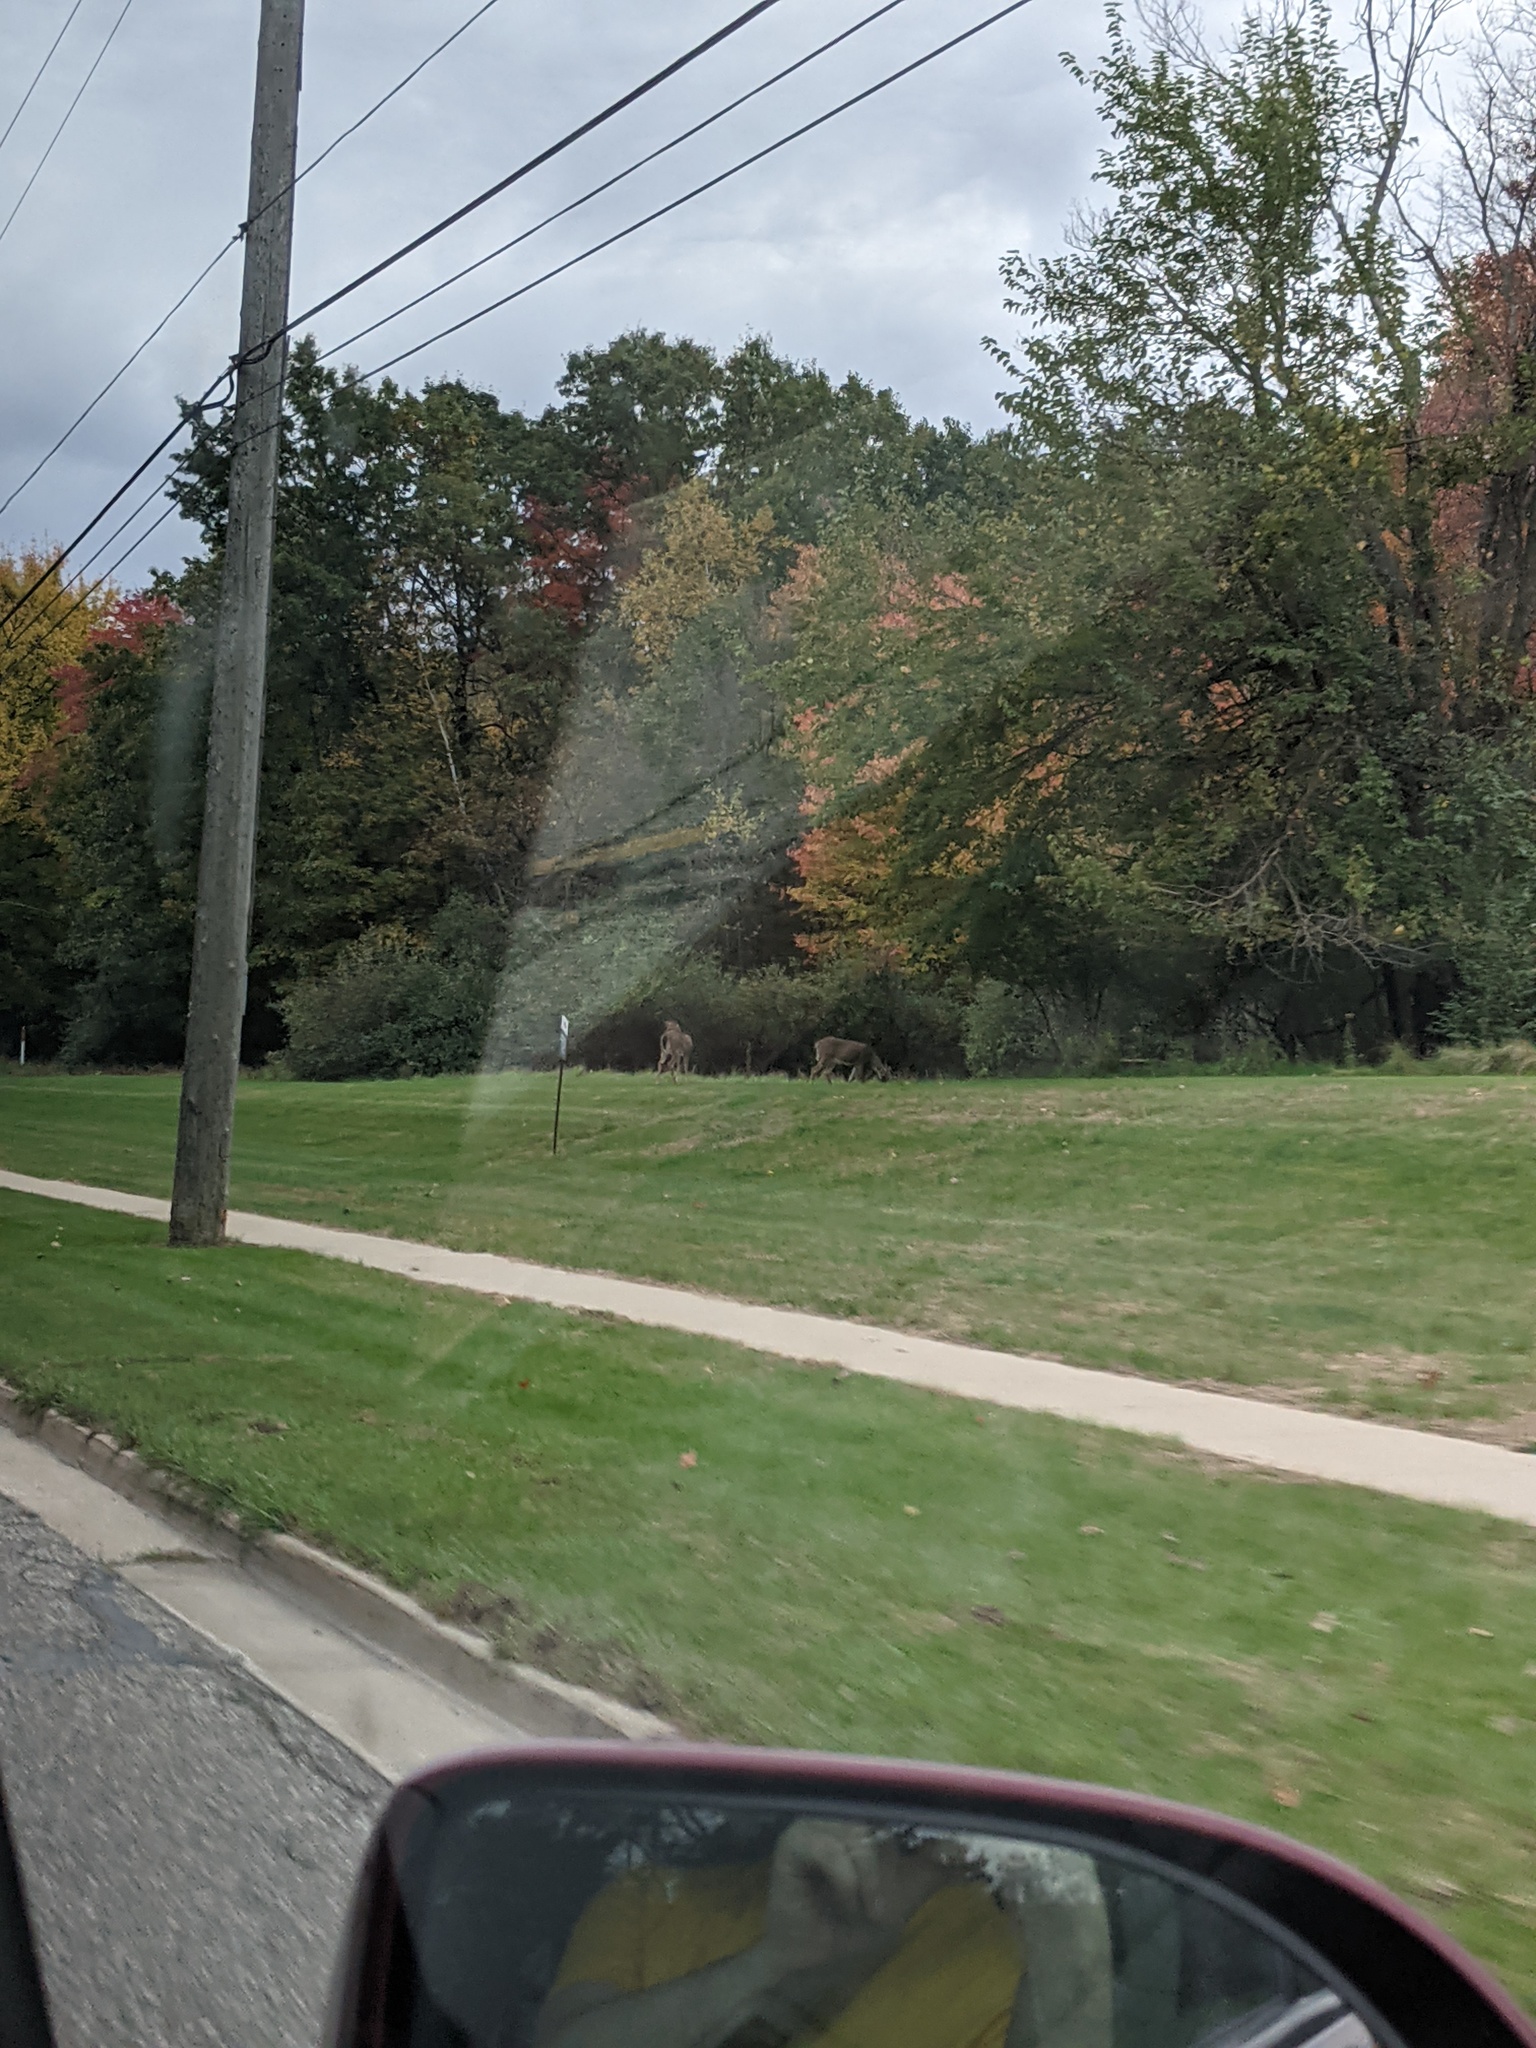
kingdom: Animalia
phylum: Chordata
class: Mammalia
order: Artiodactyla
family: Cervidae
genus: Odocoileus
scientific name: Odocoileus virginianus
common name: White-tailed deer
